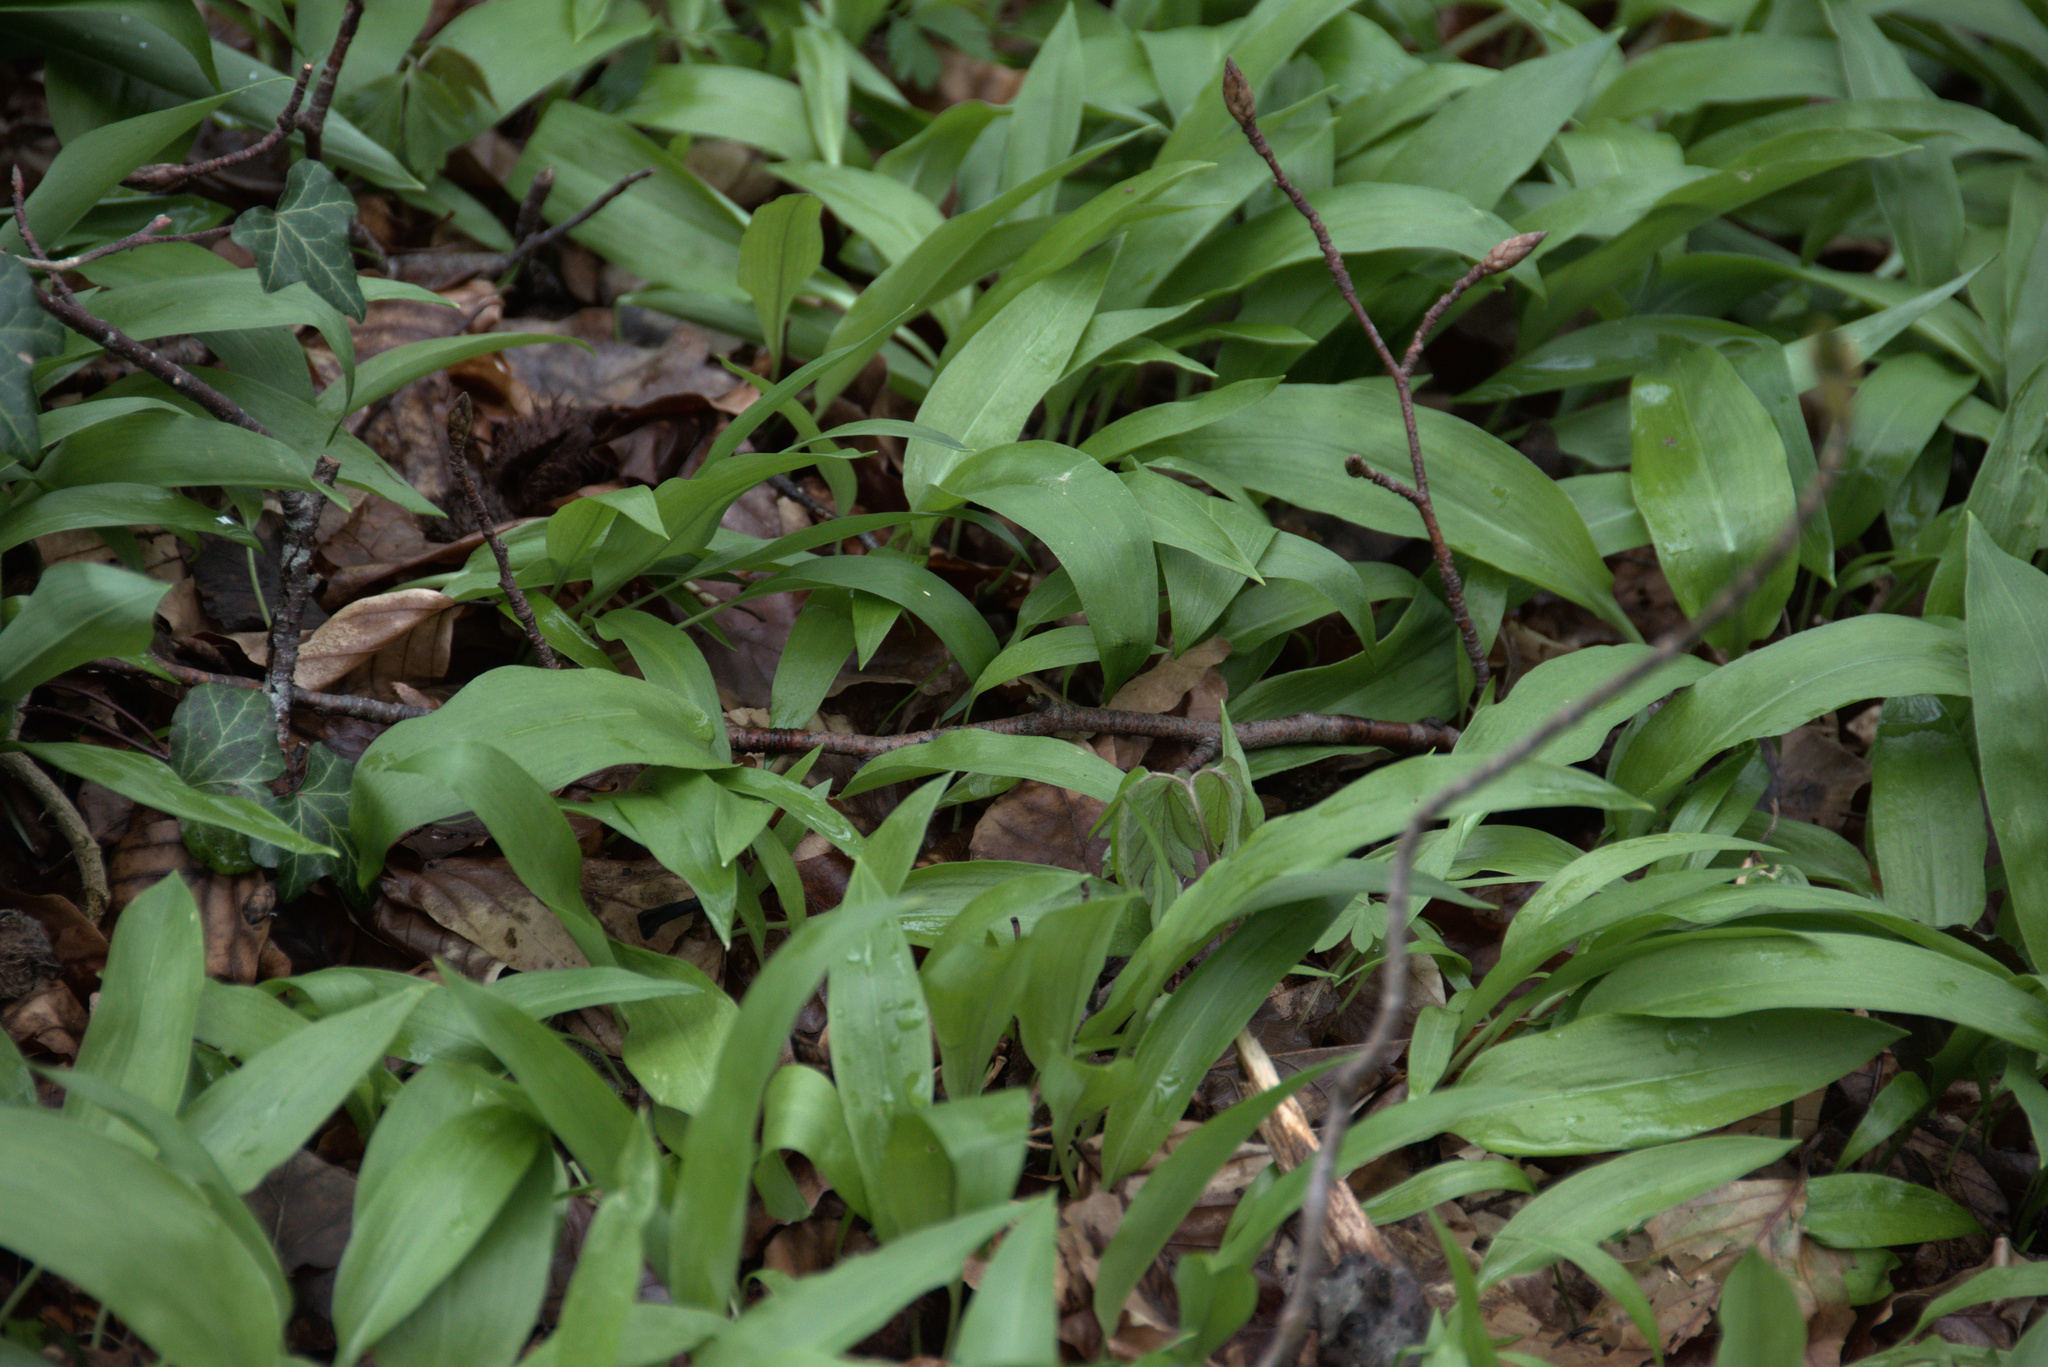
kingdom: Plantae
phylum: Tracheophyta
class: Liliopsida
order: Asparagales
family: Amaryllidaceae
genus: Allium
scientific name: Allium ursinum
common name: Ramsons
